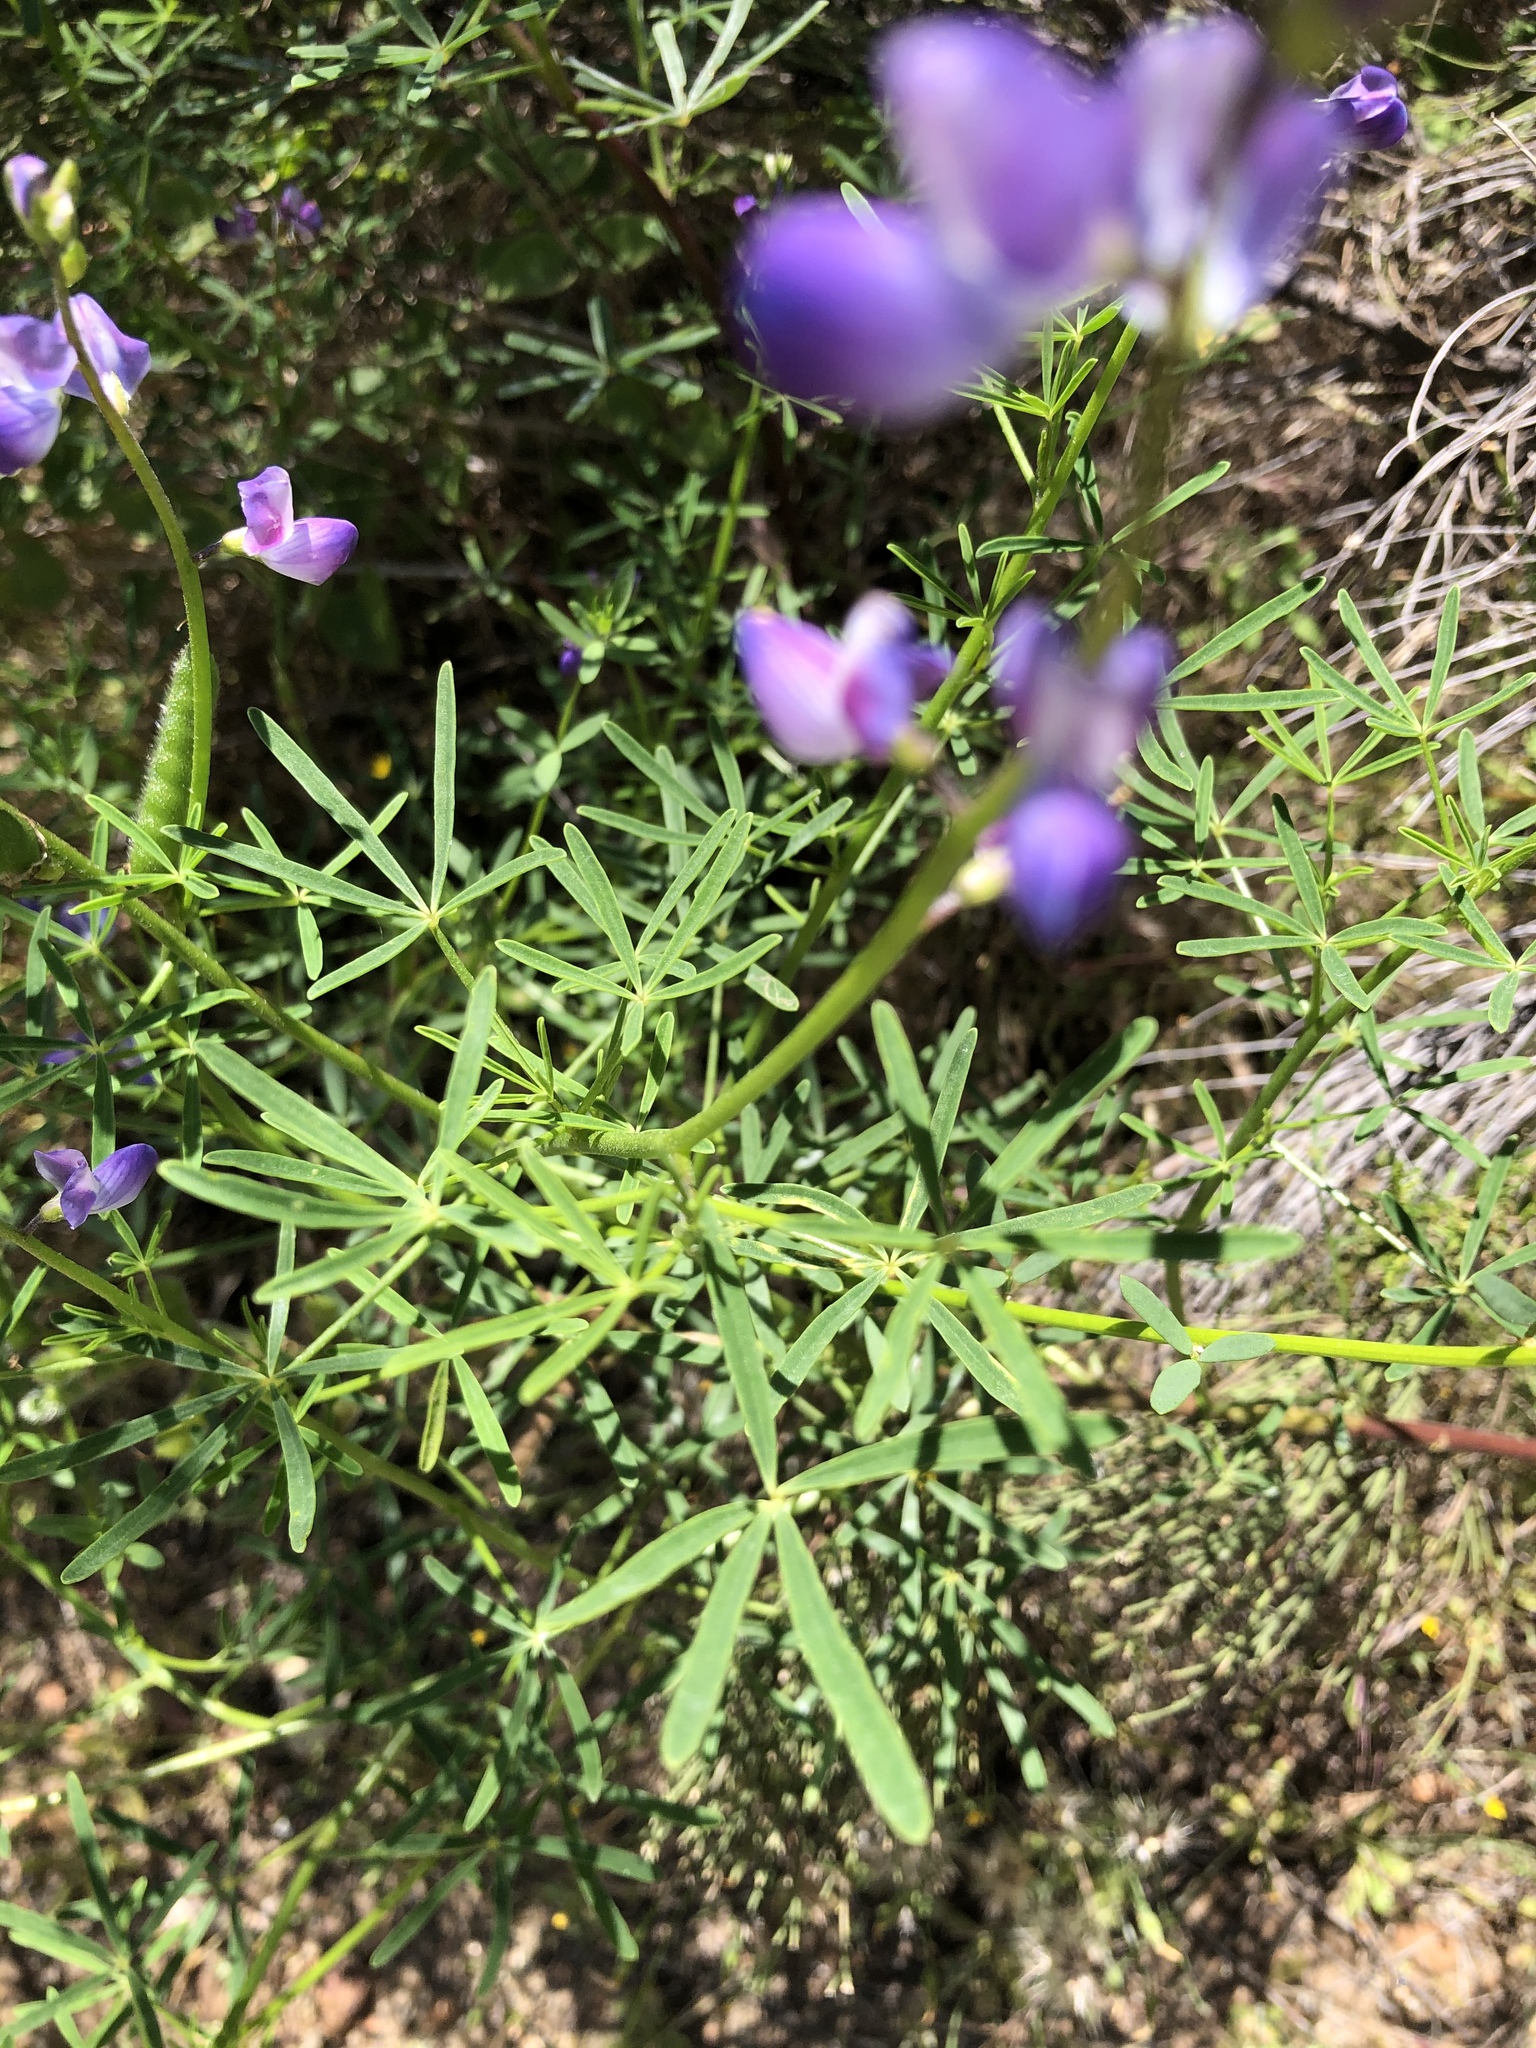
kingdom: Plantae
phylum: Tracheophyta
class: Magnoliopsida
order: Fabales
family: Fabaceae
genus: Lupinus
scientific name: Lupinus truncatus
